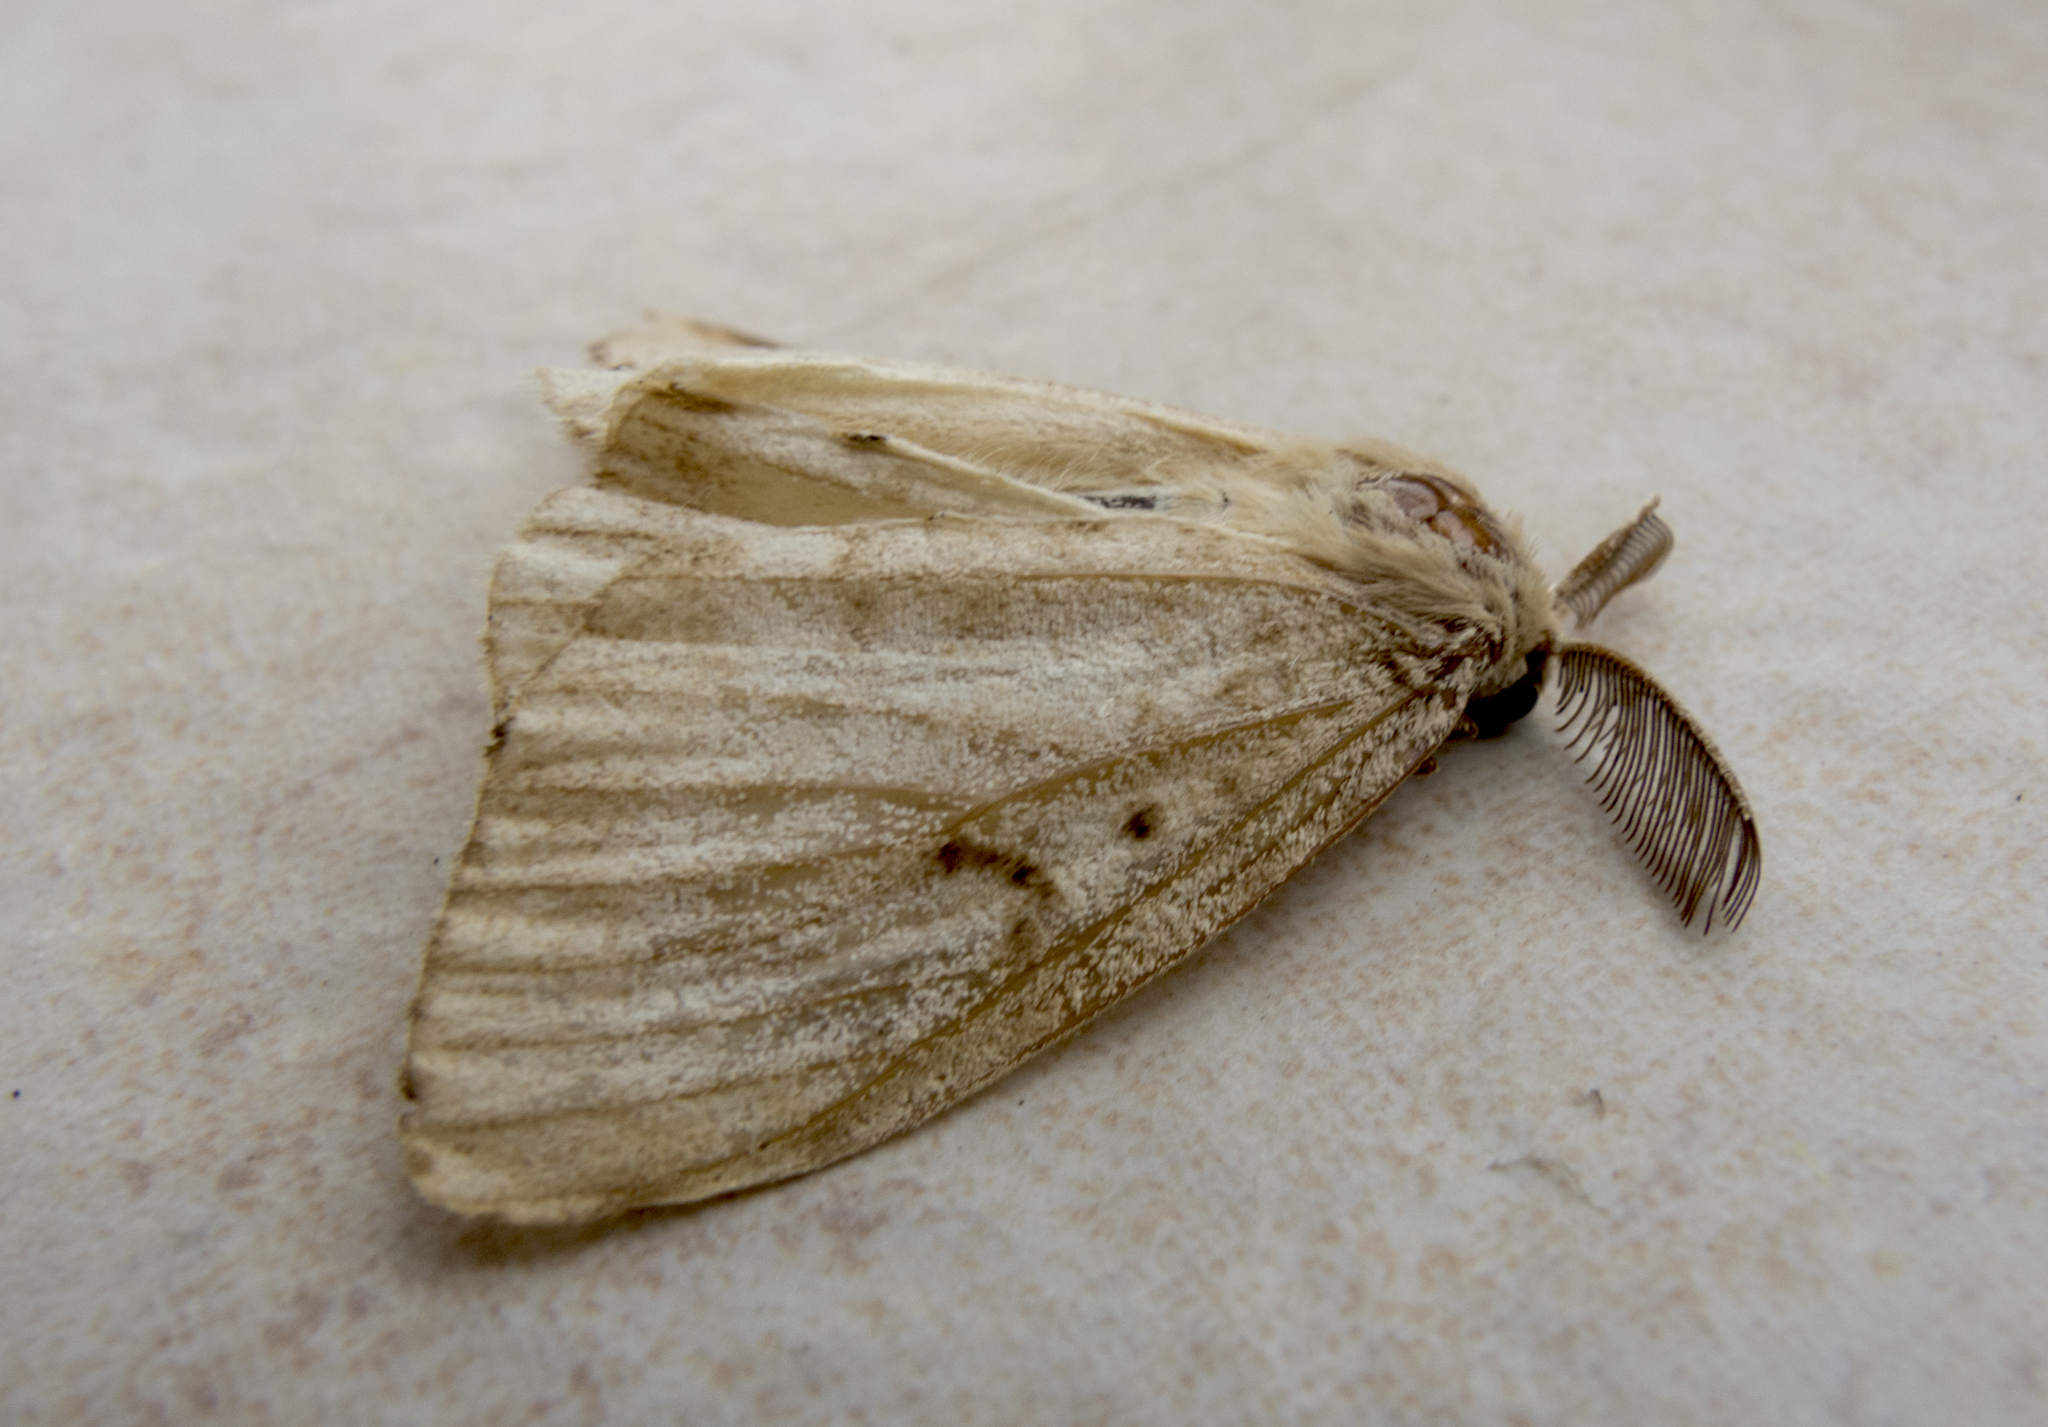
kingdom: Animalia
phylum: Arthropoda
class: Insecta
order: Lepidoptera
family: Erebidae
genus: Lymantria
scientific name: Lymantria dispar
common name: Gypsy moth
